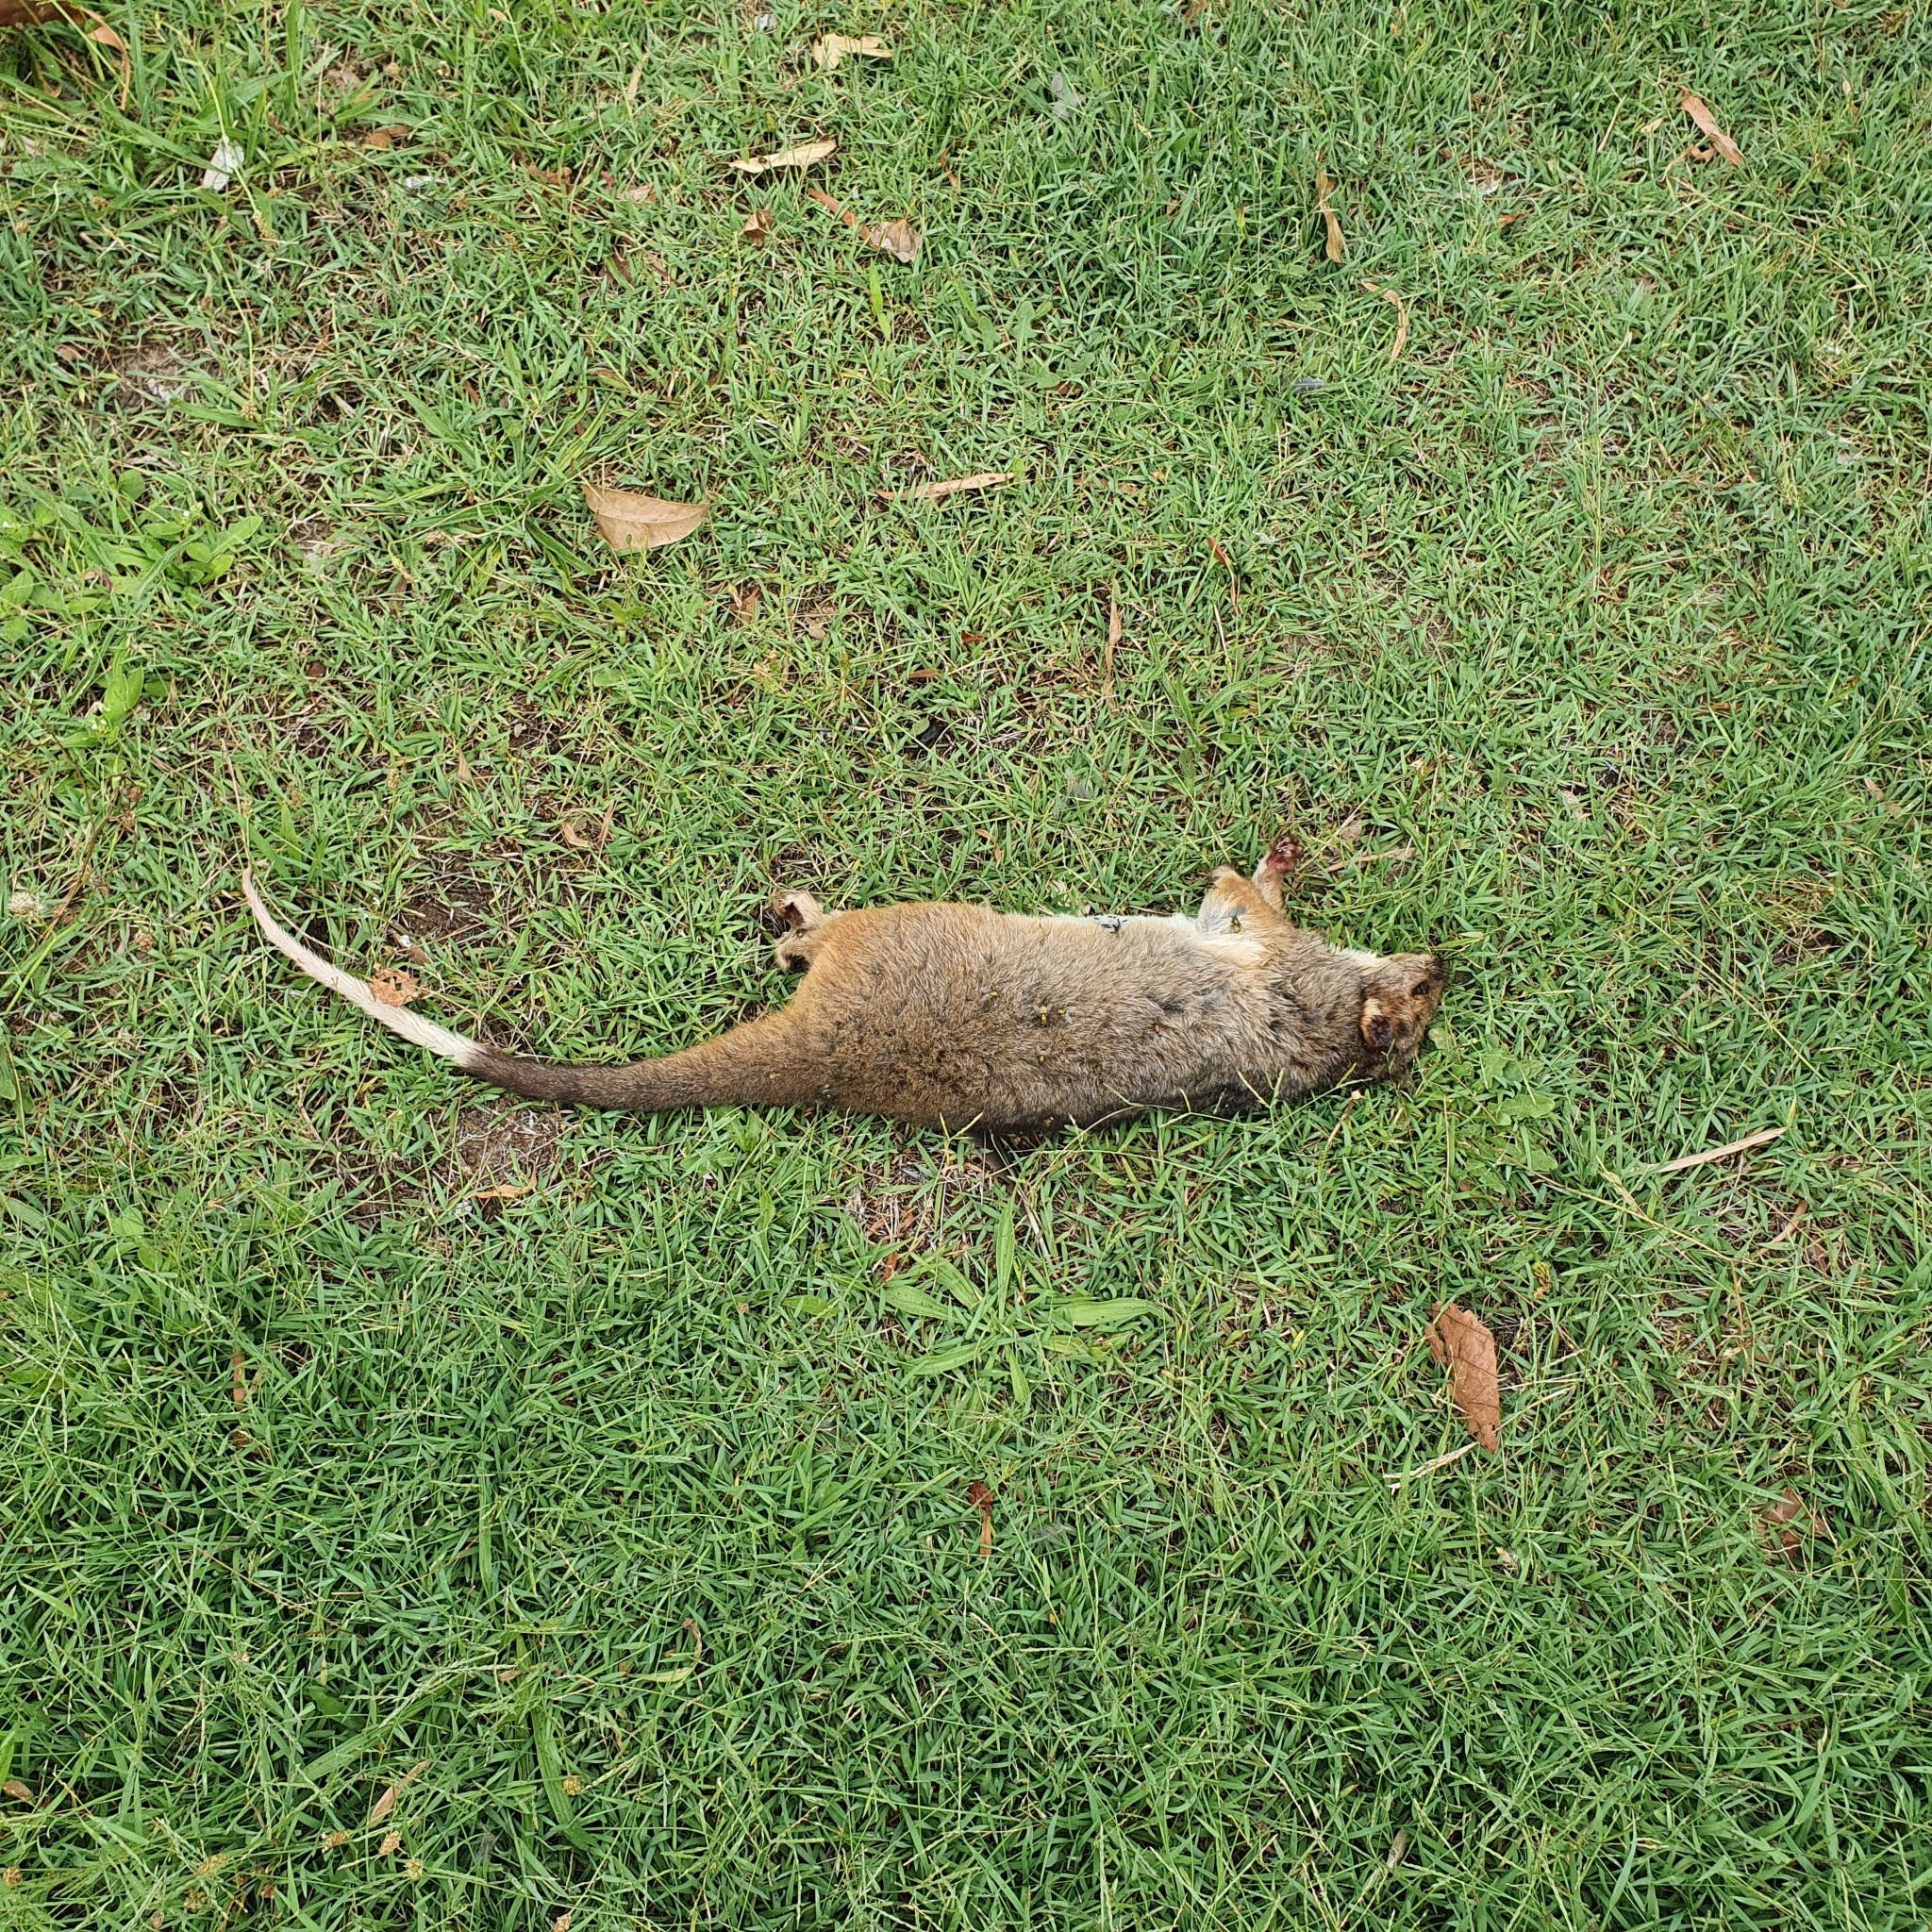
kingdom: Animalia
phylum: Chordata
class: Mammalia
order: Diprotodontia
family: Pseudocheiridae
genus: Pseudocheirus
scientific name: Pseudocheirus peregrinus
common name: Common ringtail possum
